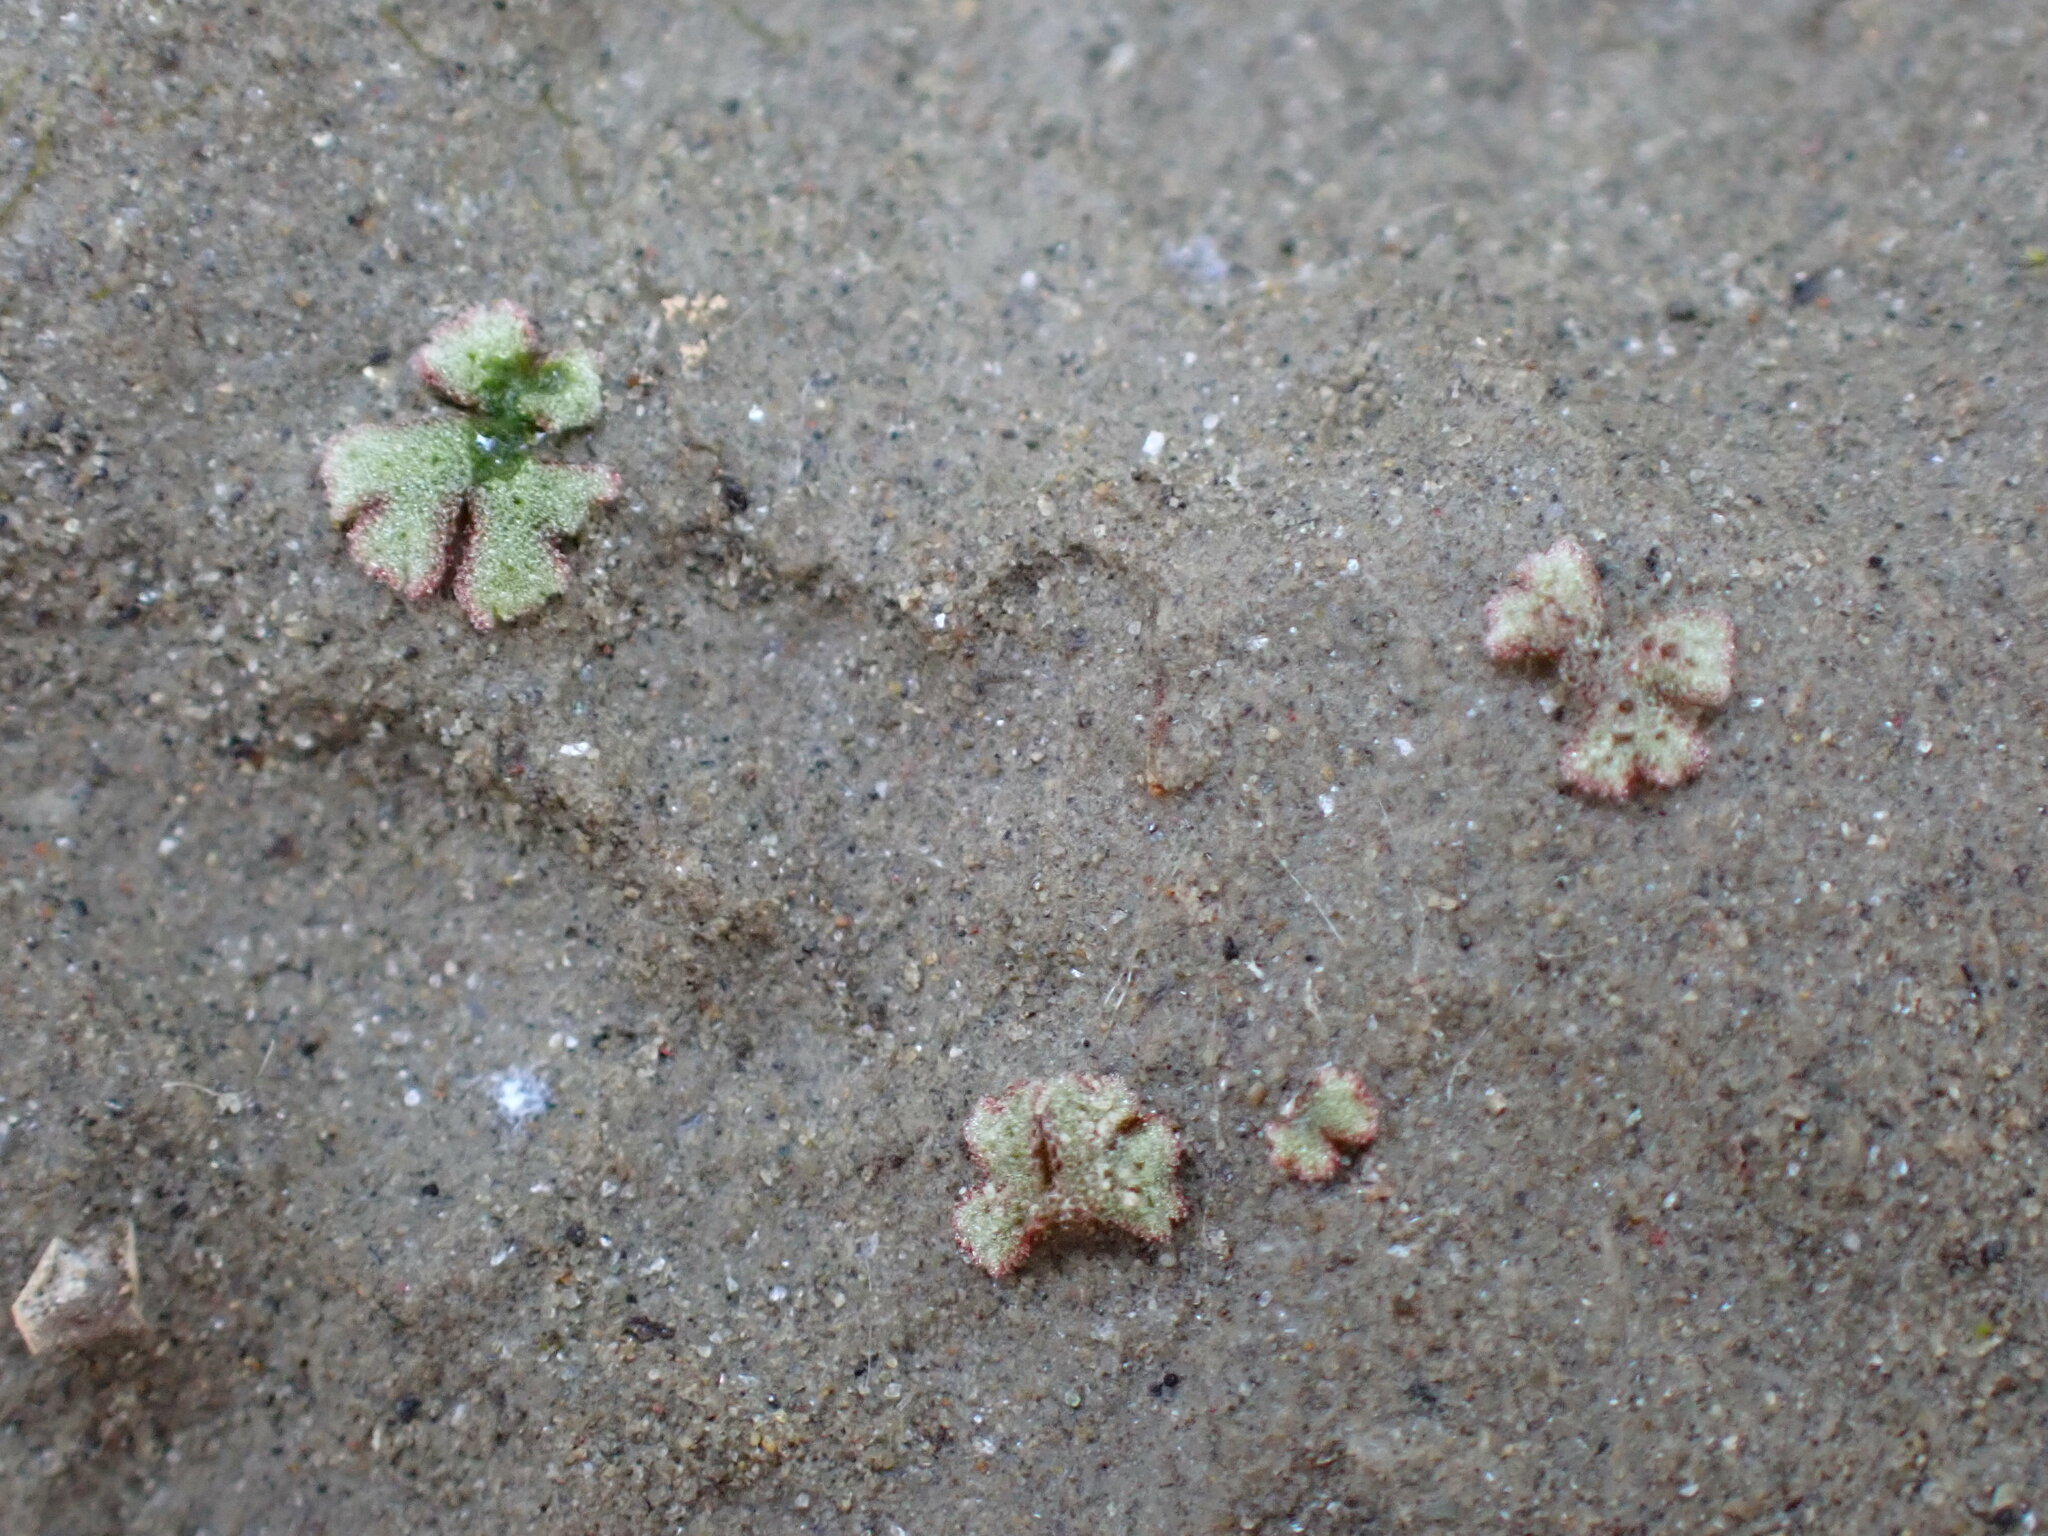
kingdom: Plantae
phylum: Marchantiophyta
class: Marchantiopsida
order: Marchantiales
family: Ricciaceae
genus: Riccia
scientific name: Riccia frostii
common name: Frost s crystalwort
